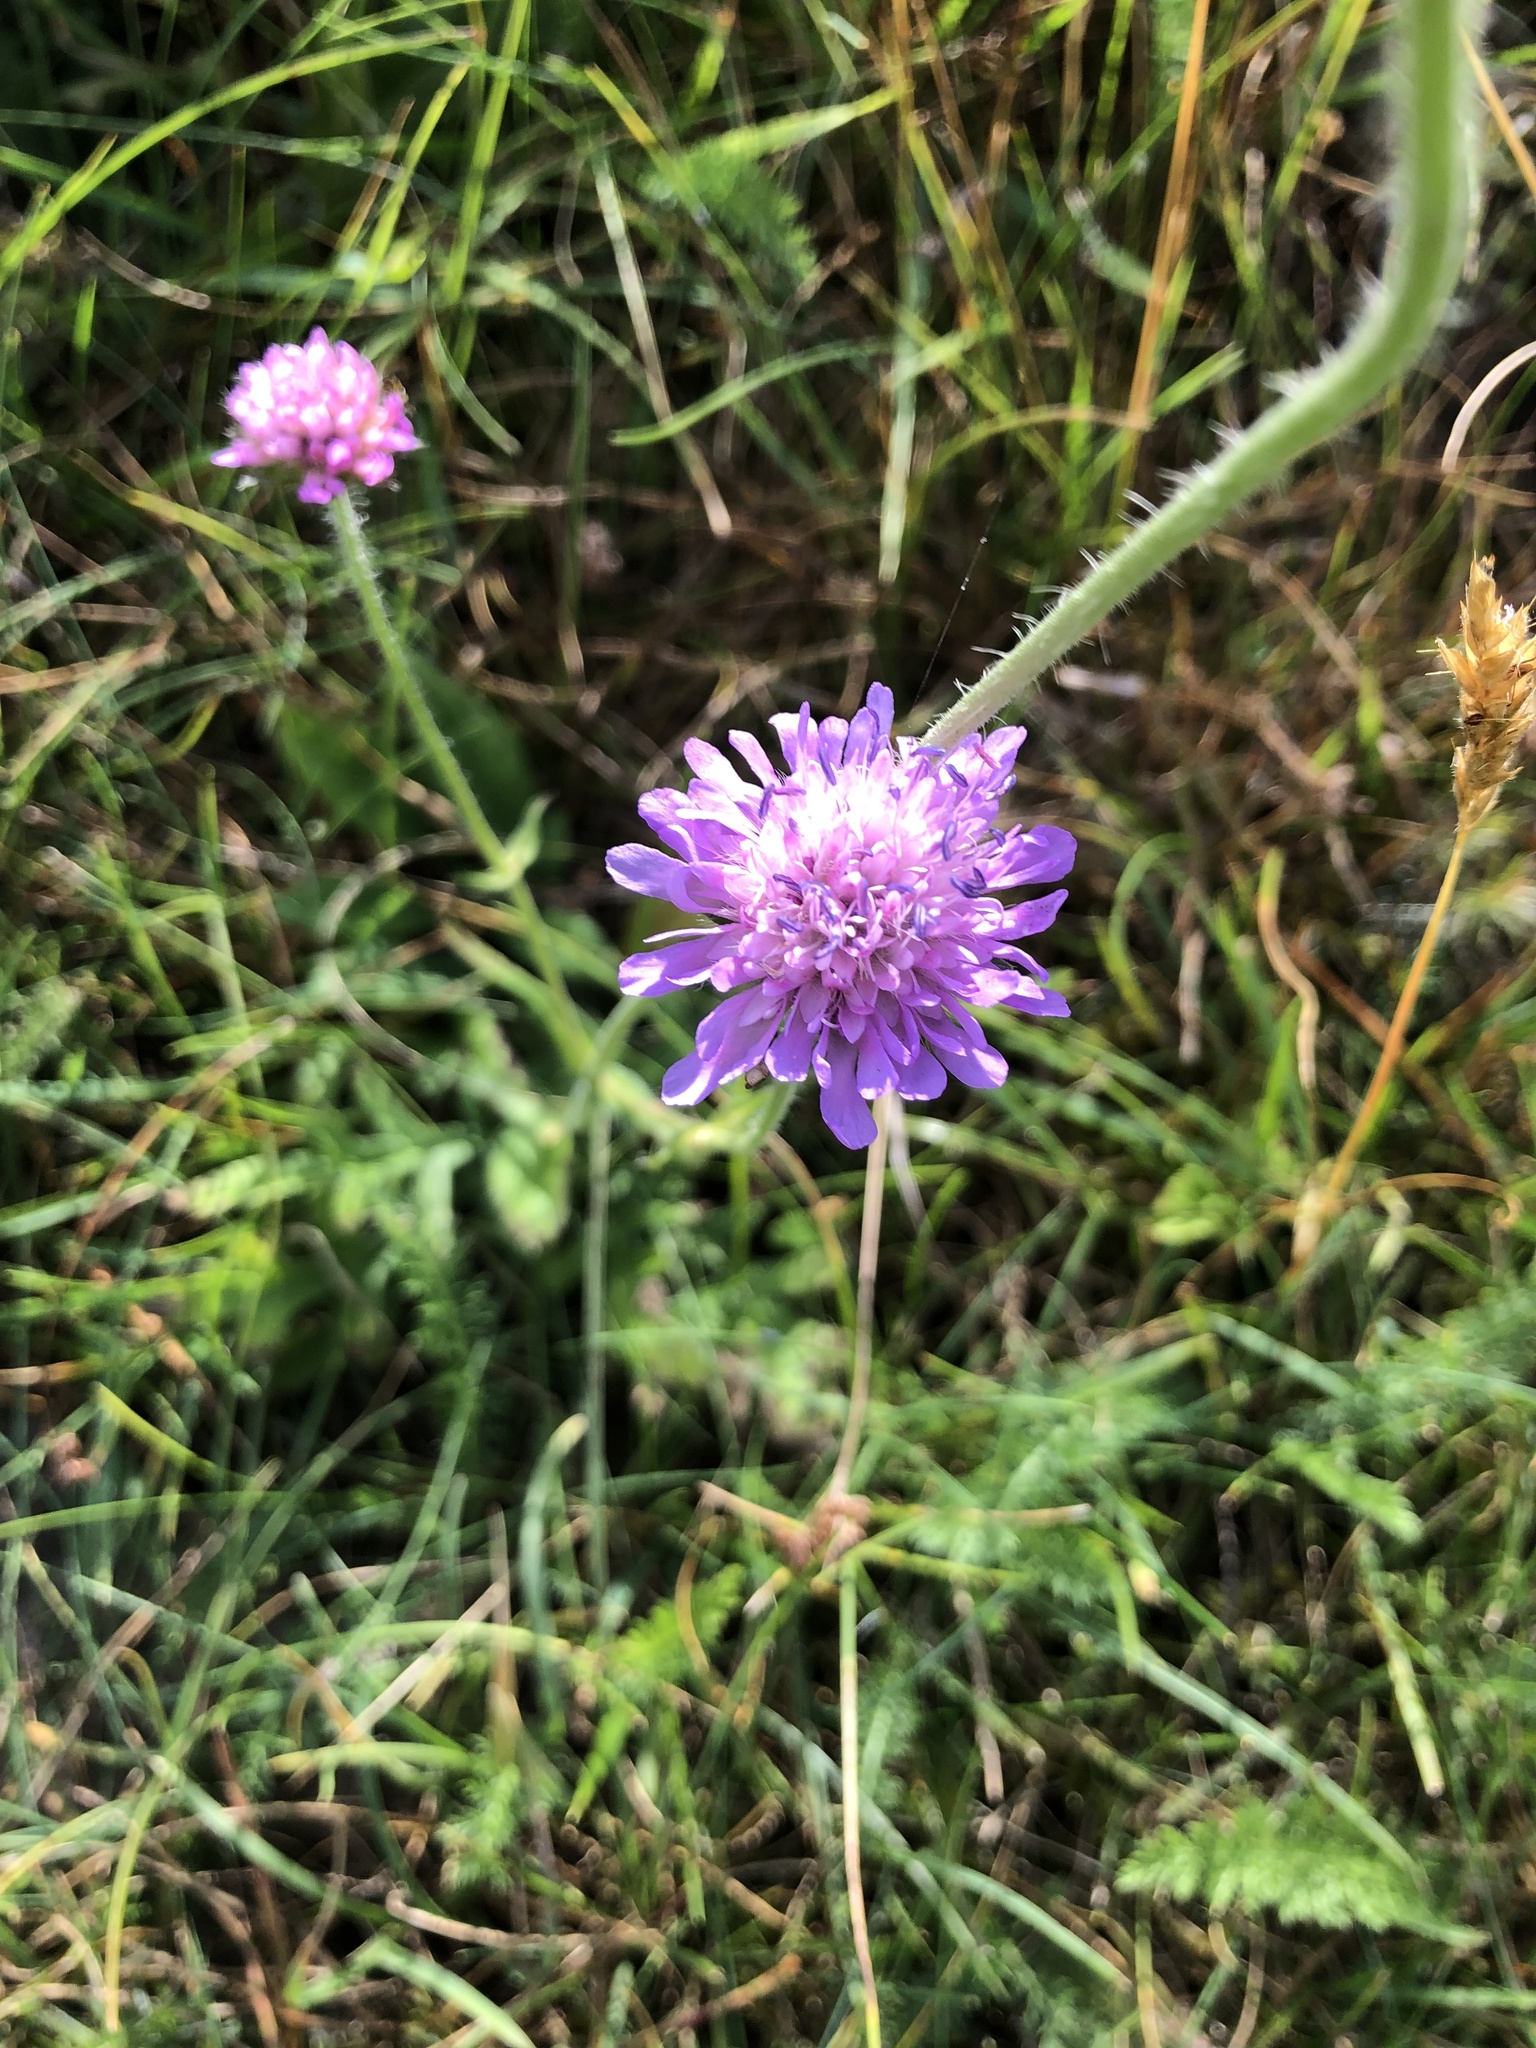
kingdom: Plantae
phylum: Tracheophyta
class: Magnoliopsida
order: Dipsacales
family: Caprifoliaceae
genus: Knautia
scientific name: Knautia arvensis
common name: Field scabiosa
